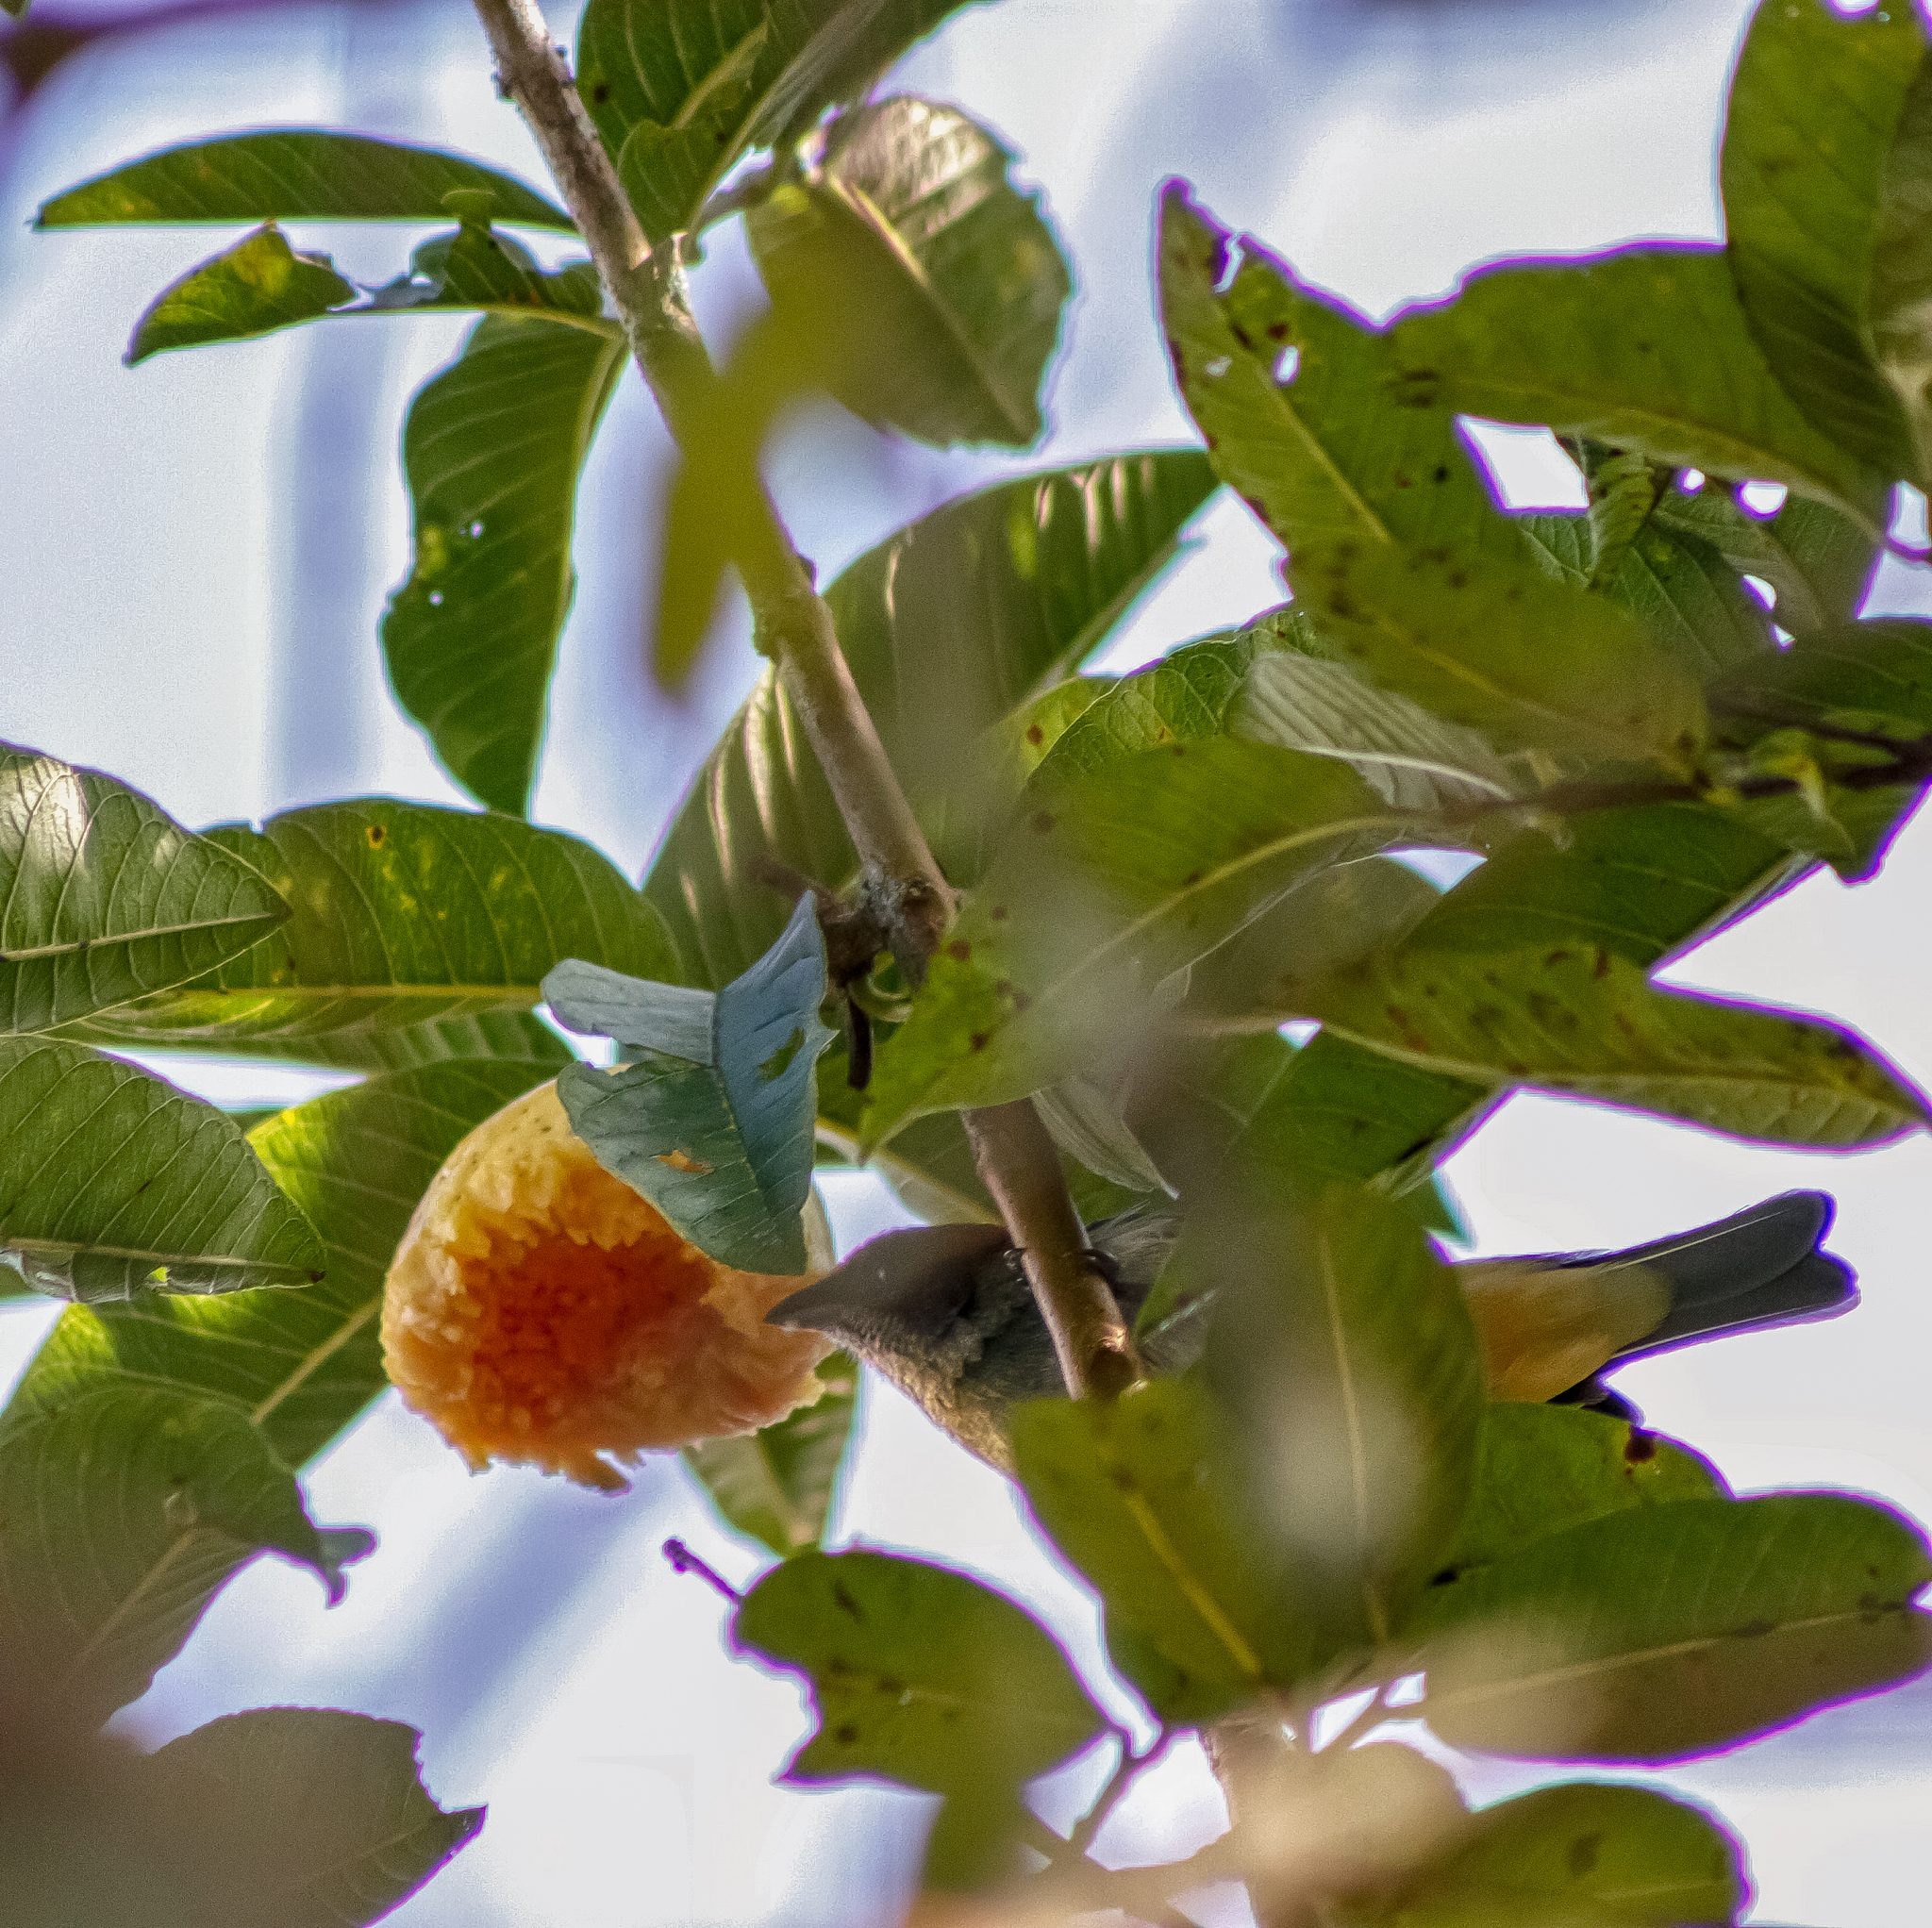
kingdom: Animalia
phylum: Chordata
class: Aves
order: Passeriformes
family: Thraupidae
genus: Stilpnia
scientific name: Stilpnia vitriolina
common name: Scrub tanager
